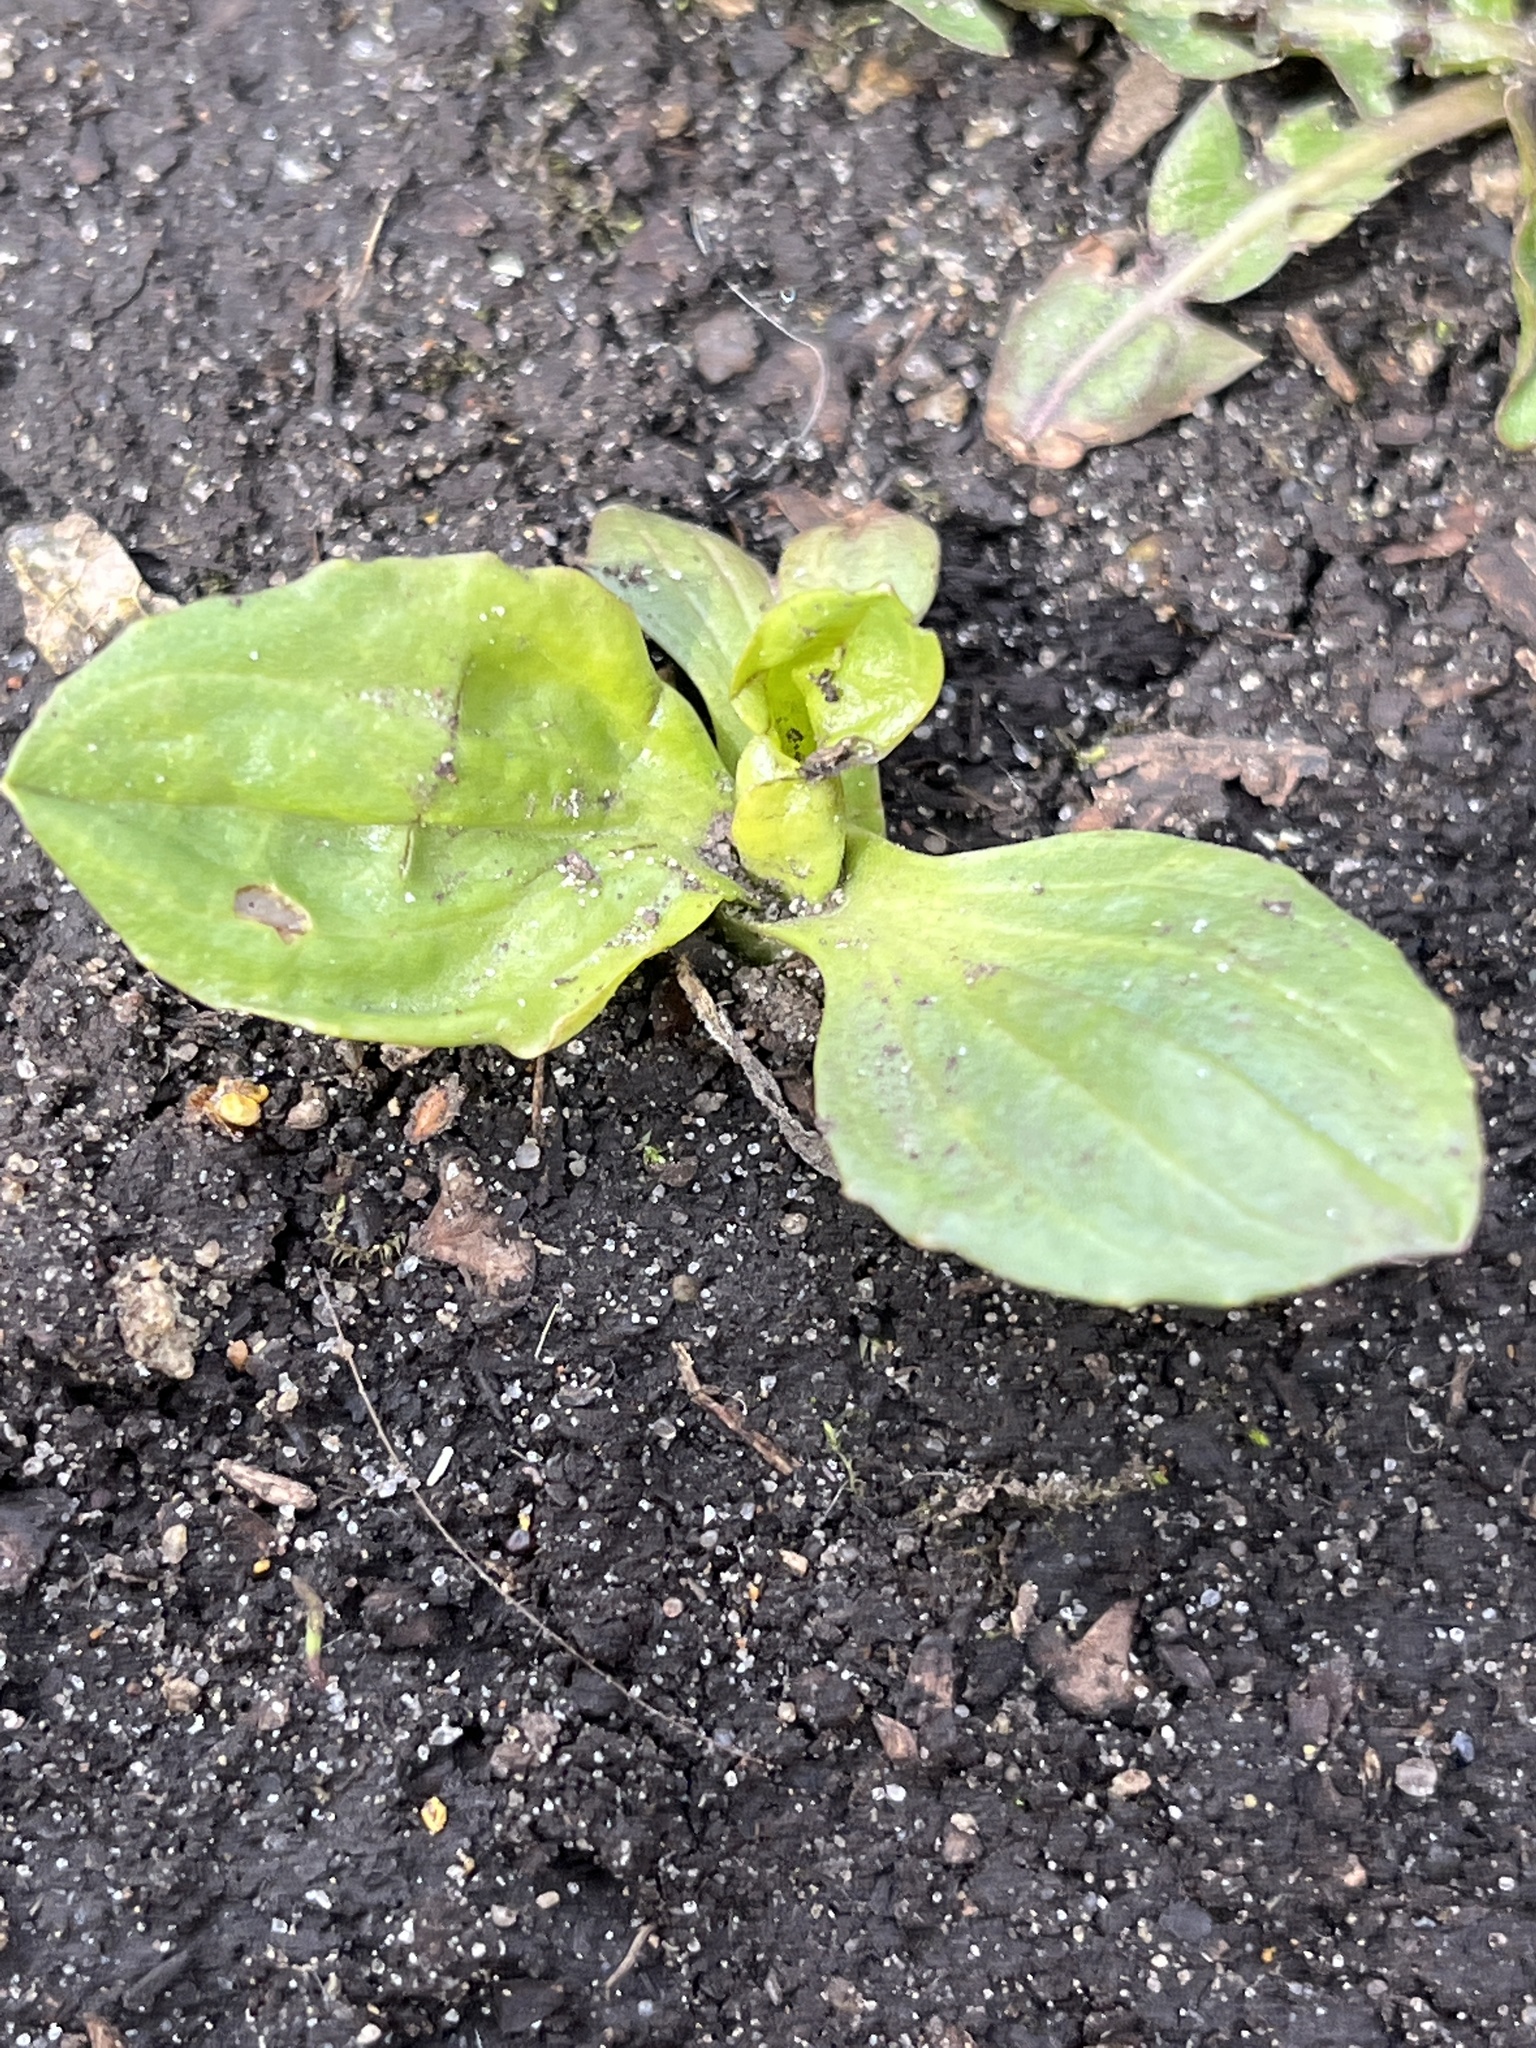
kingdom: Plantae
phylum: Tracheophyta
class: Magnoliopsida
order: Lamiales
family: Plantaginaceae
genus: Plantago
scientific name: Plantago major
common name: Common plantain
